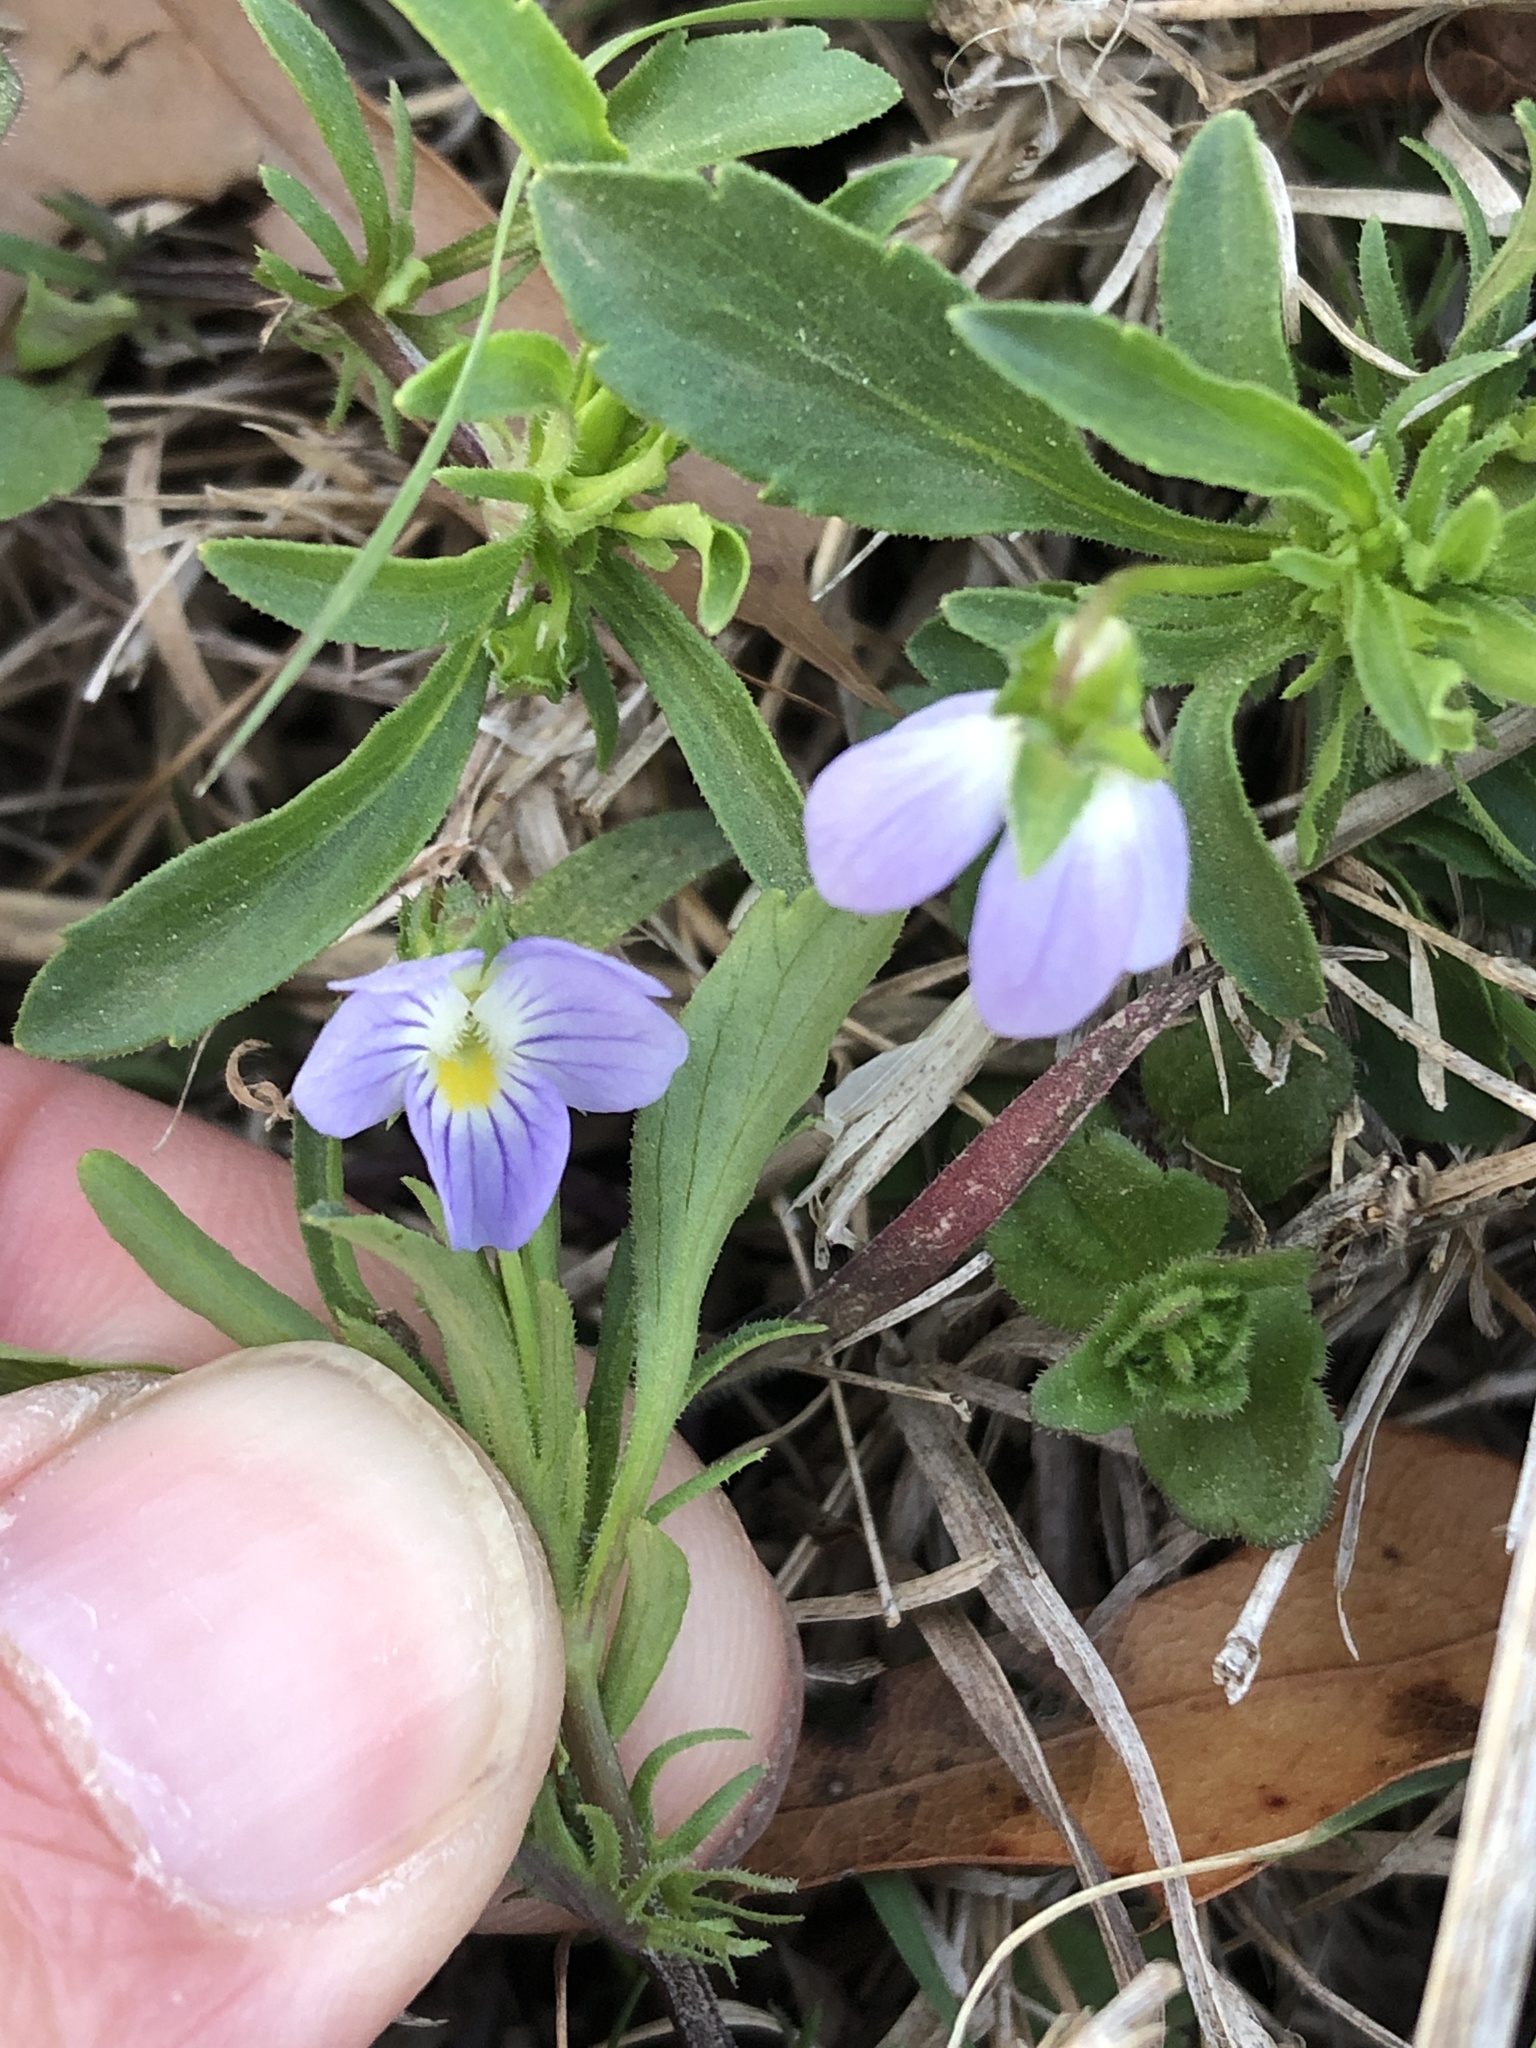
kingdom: Plantae
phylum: Tracheophyta
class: Magnoliopsida
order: Malpighiales
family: Violaceae
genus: Viola
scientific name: Viola rafinesquei
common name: American field pansy
